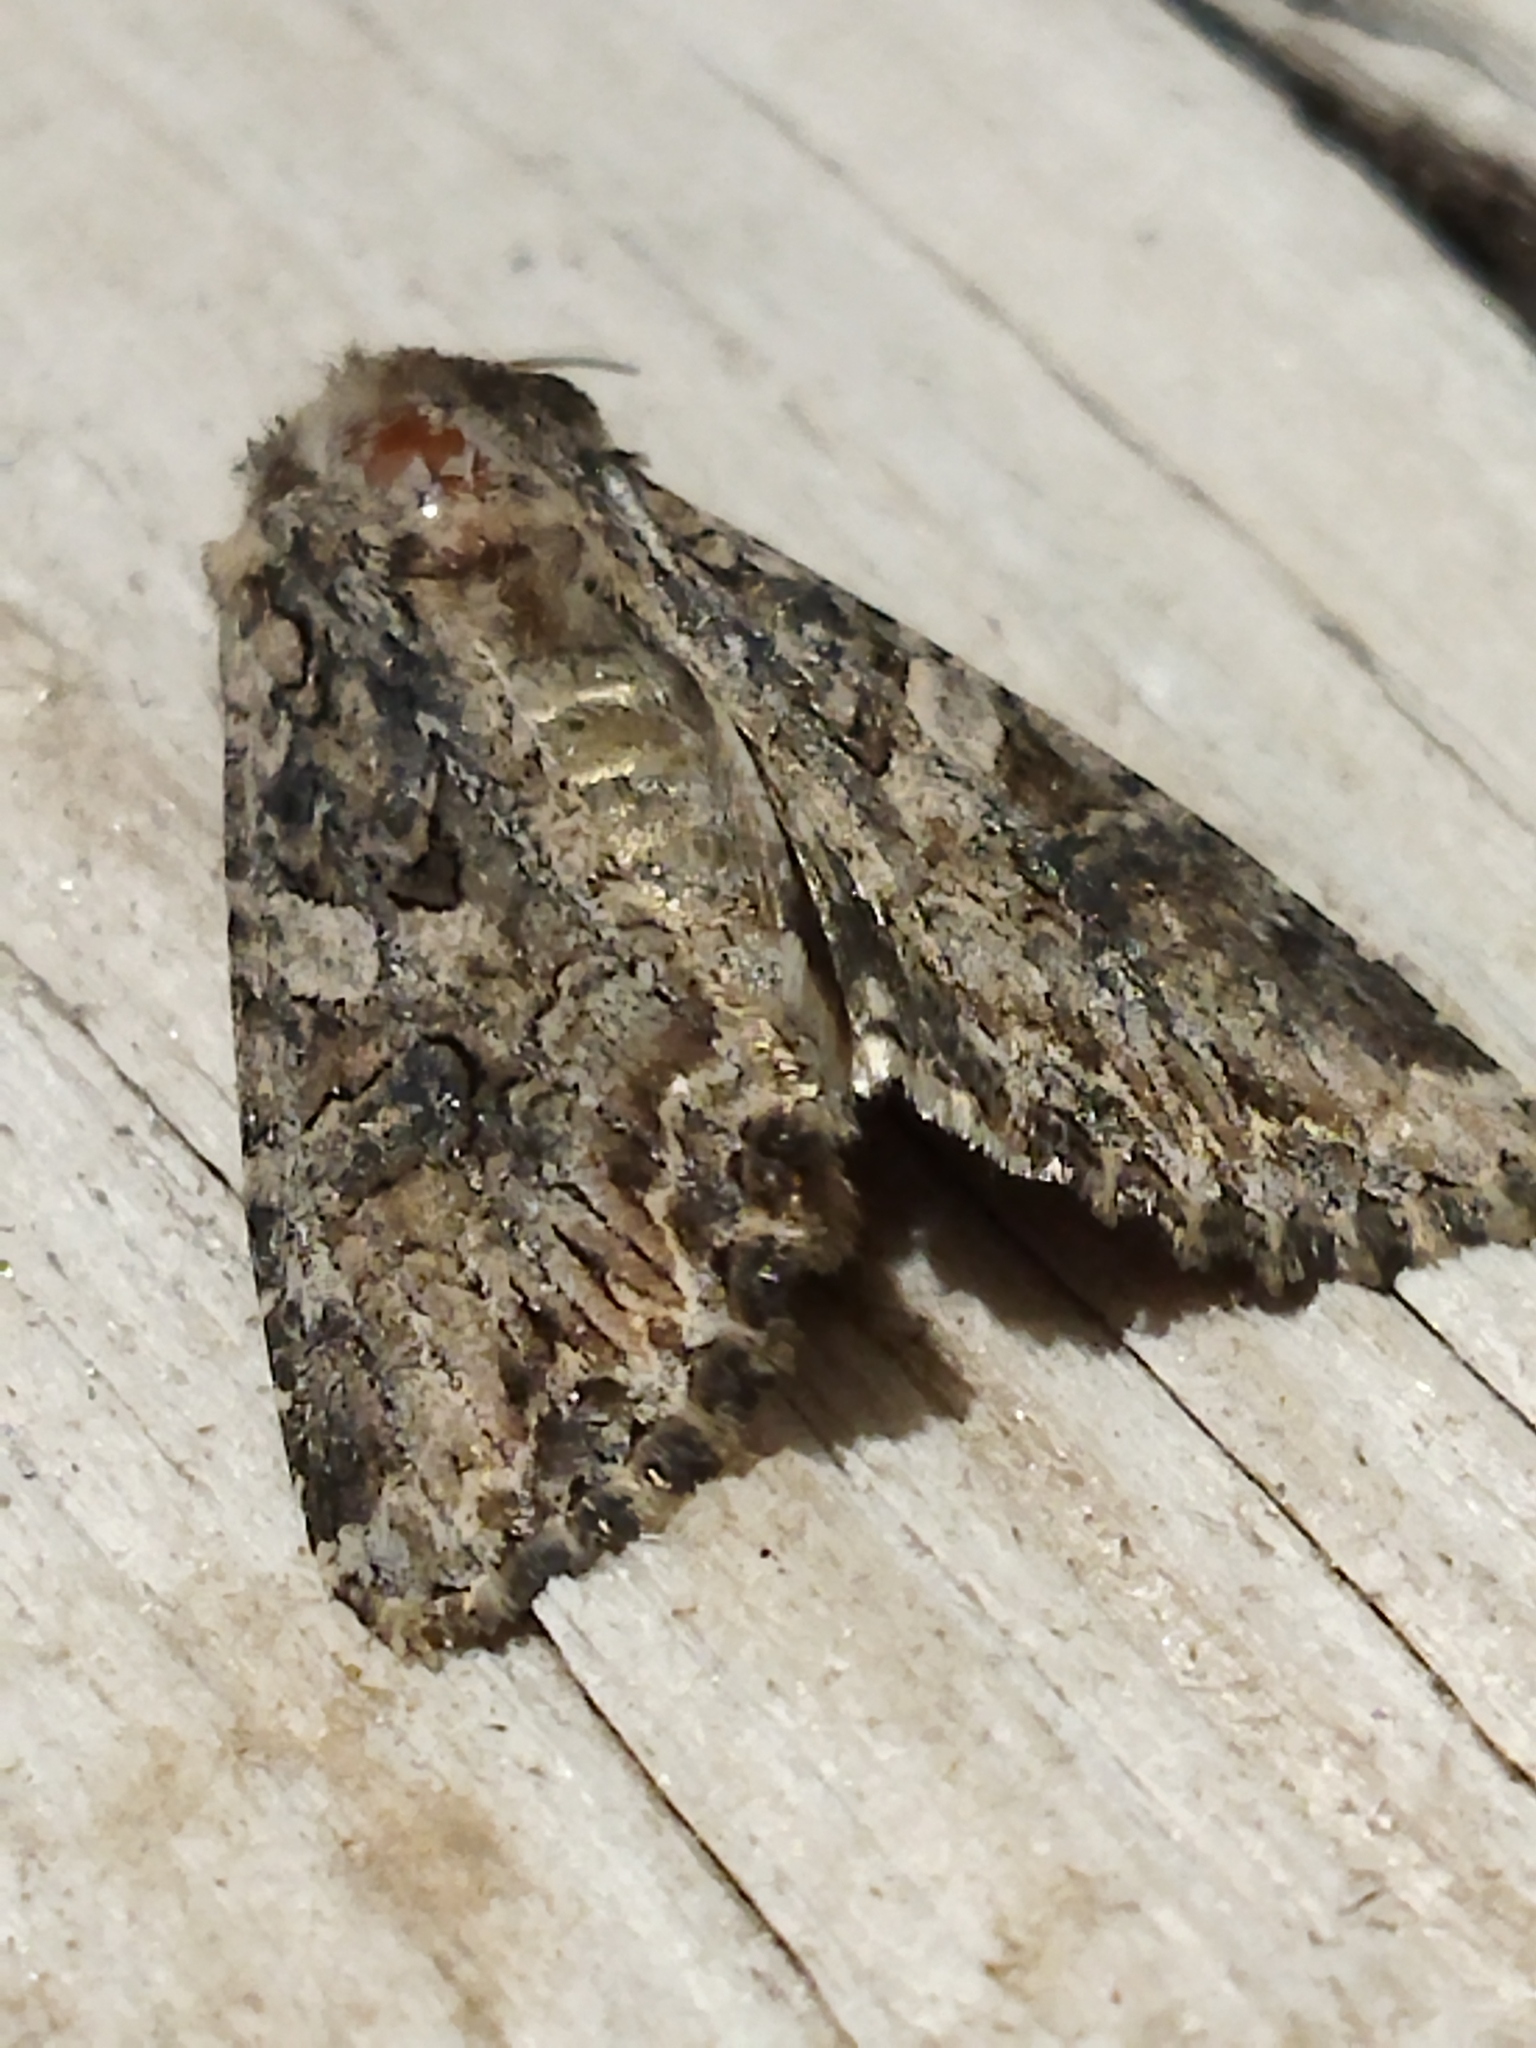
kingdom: Animalia
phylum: Arthropoda
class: Insecta
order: Lepidoptera
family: Noctuidae
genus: Anarta
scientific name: Anarta trifolii
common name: Clover cutworm moth
